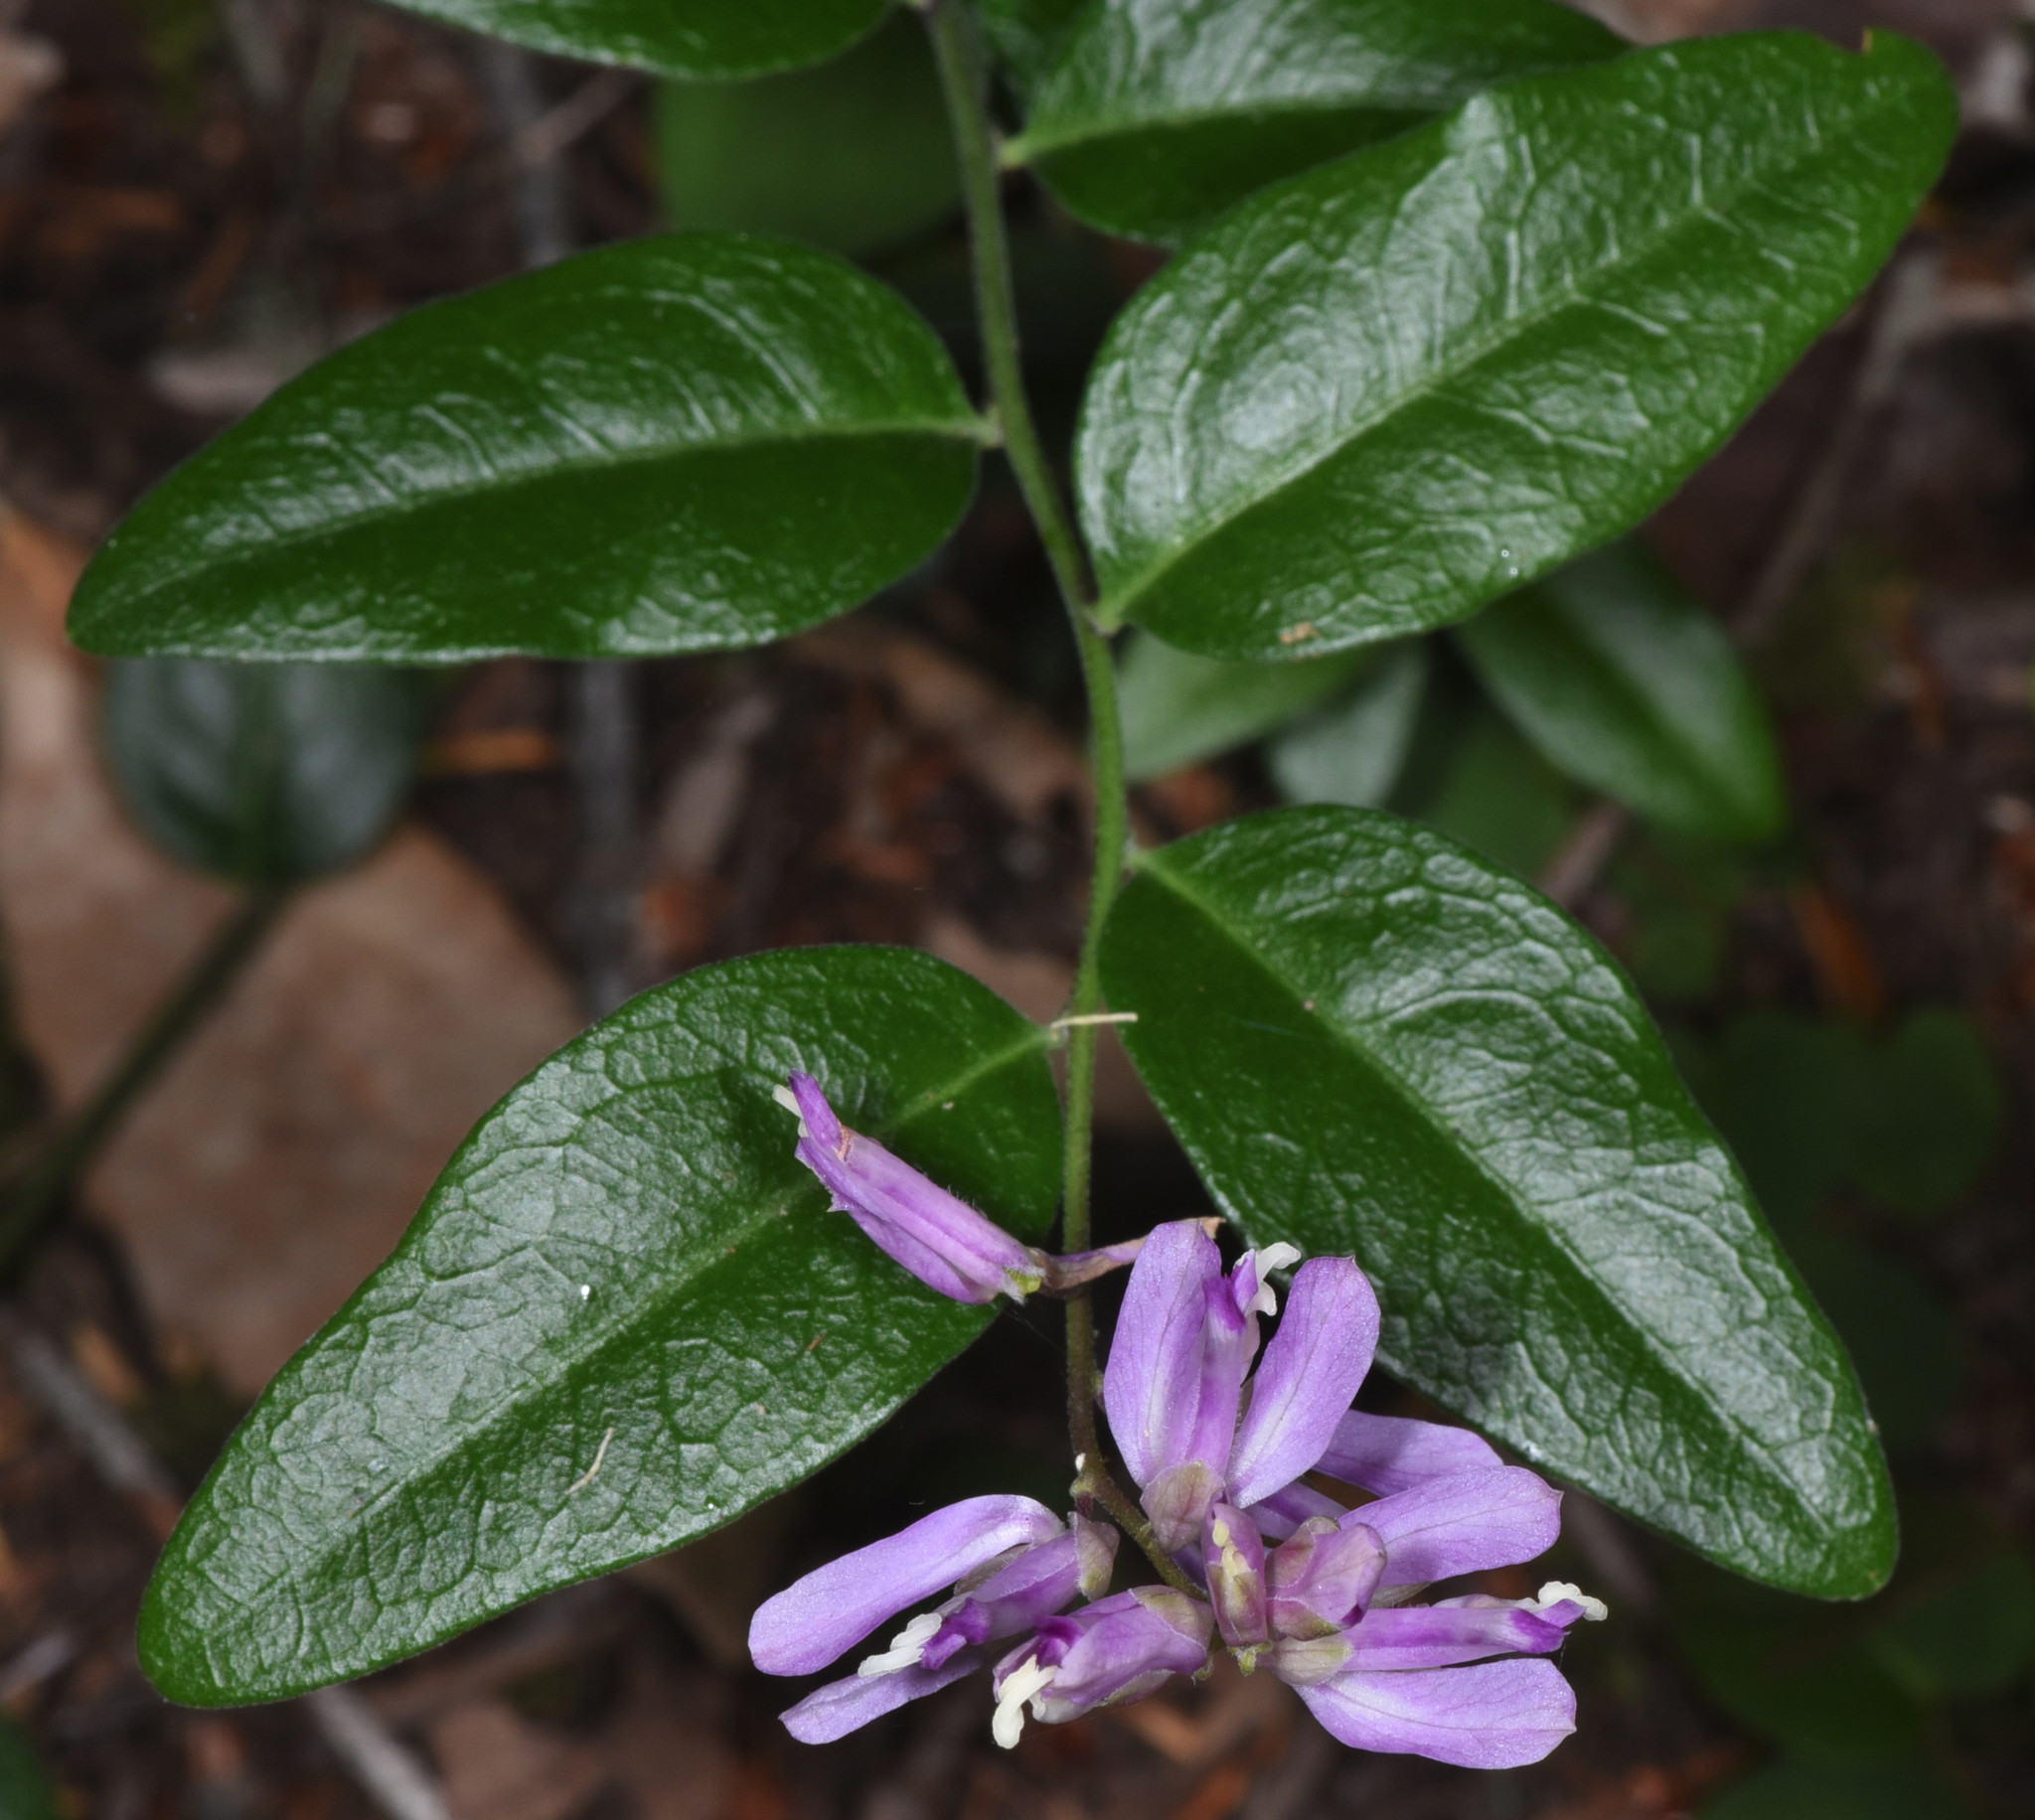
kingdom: Plantae
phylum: Tracheophyta
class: Magnoliopsida
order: Fabales
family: Polygalaceae
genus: Rhinotropis
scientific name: Rhinotropis californica
